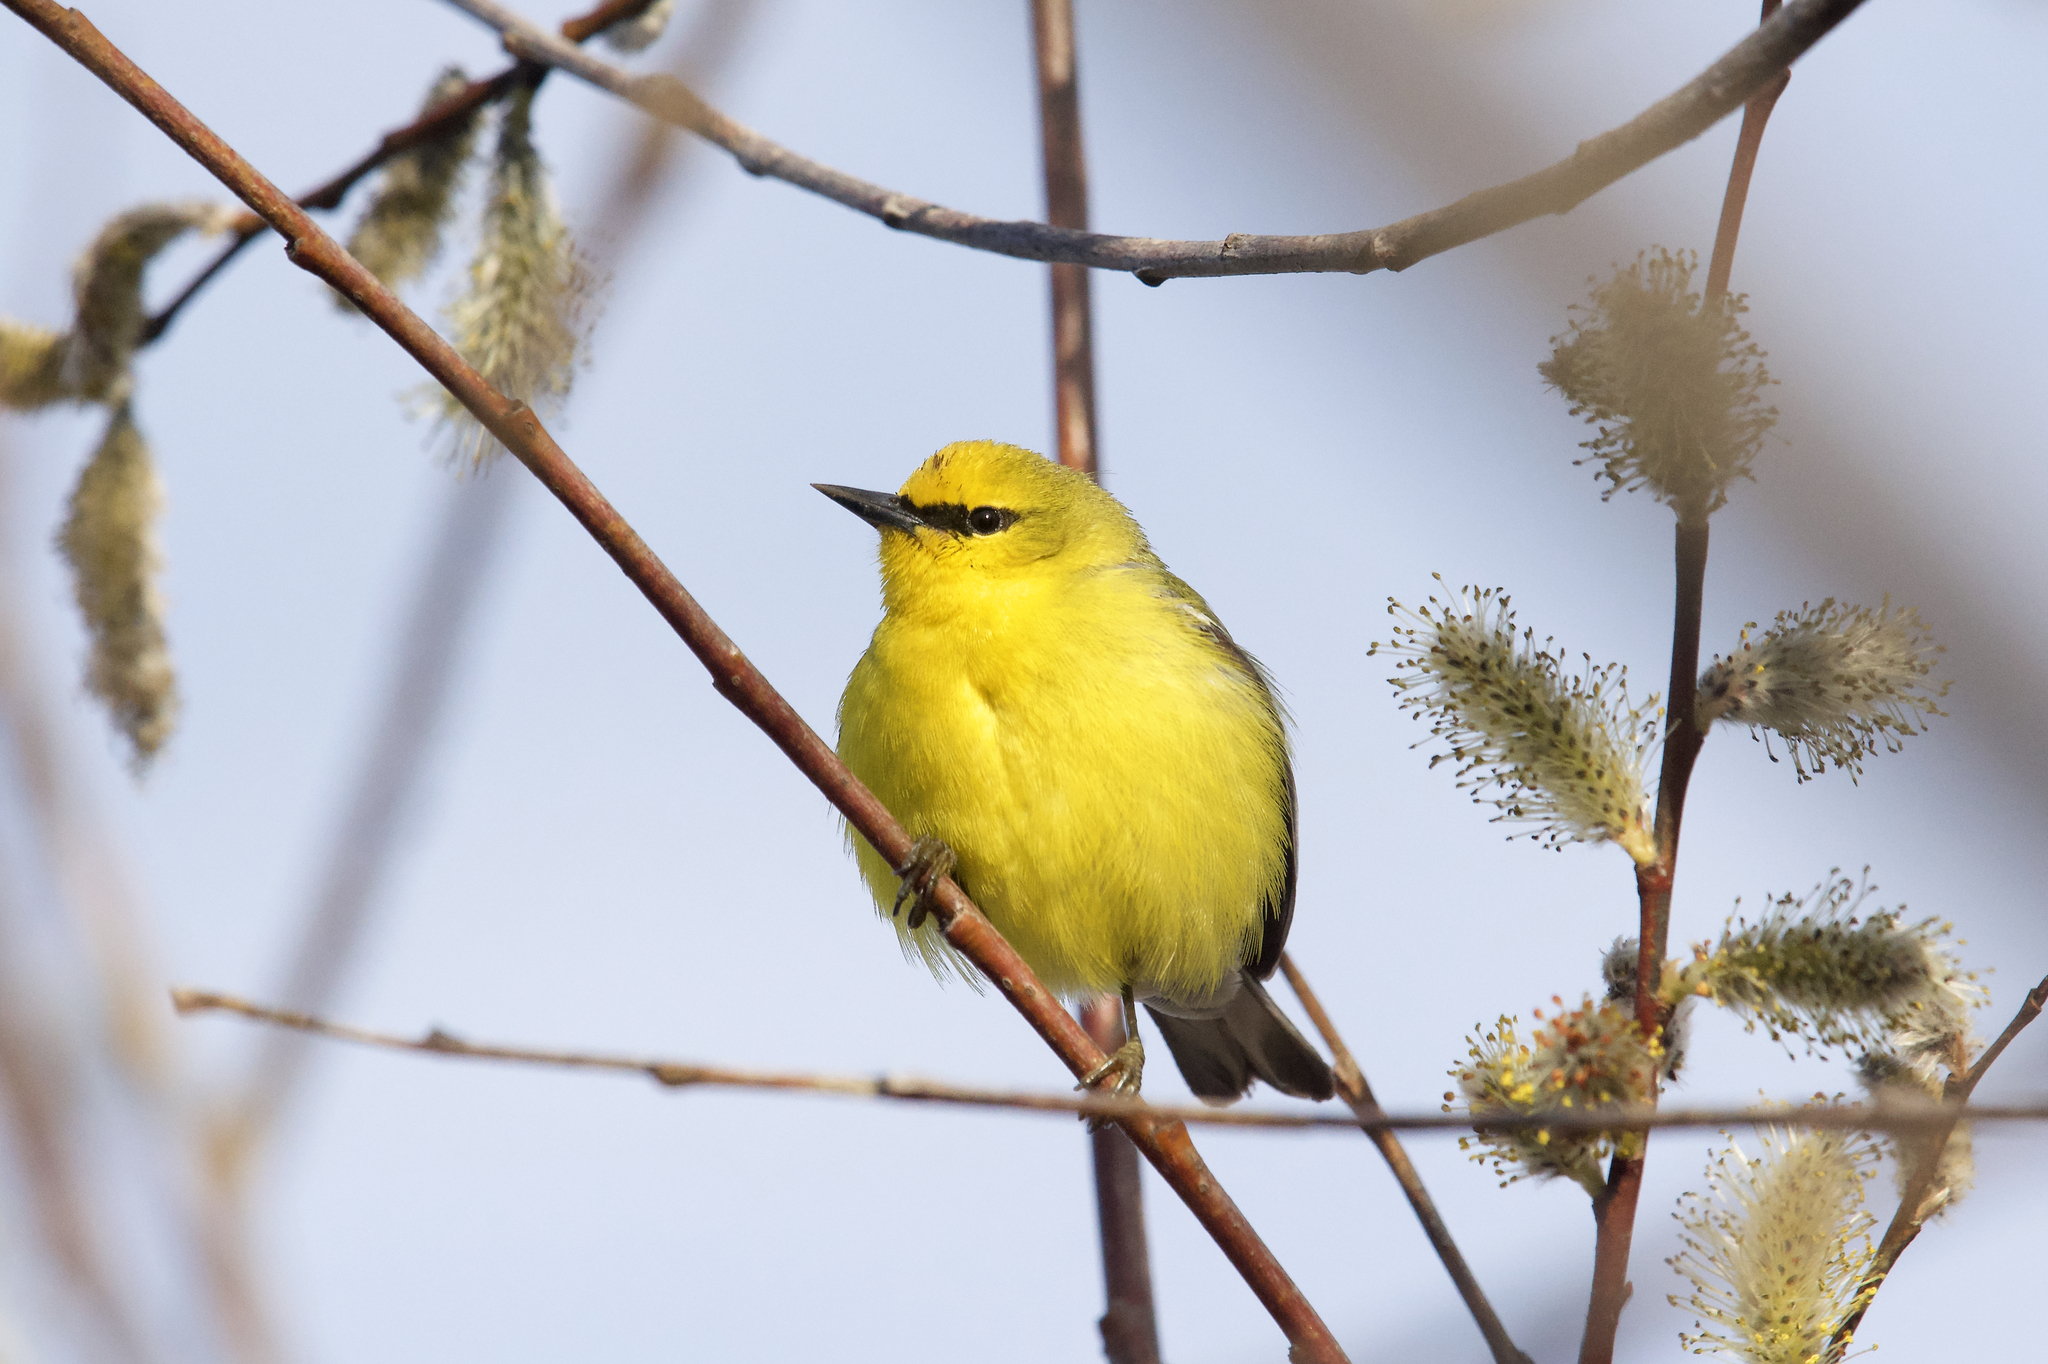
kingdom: Animalia
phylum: Chordata
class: Aves
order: Passeriformes
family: Parulidae
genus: Vermivora
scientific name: Vermivora cyanoptera
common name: Blue-winged warbler
